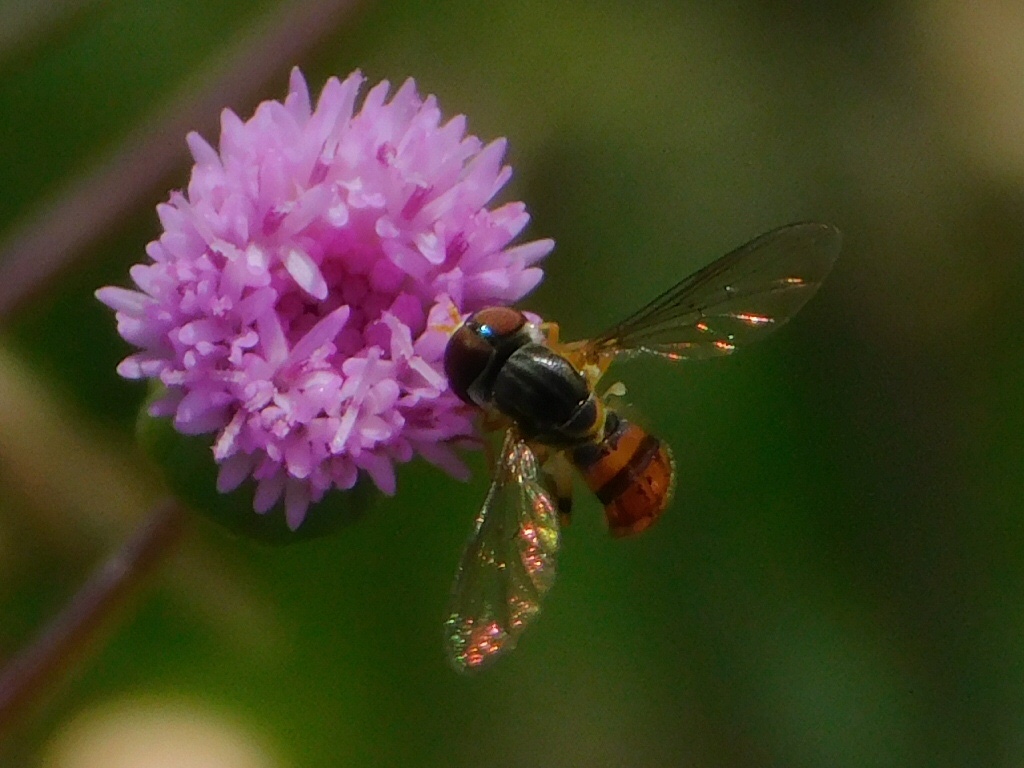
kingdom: Animalia
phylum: Arthropoda
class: Insecta
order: Diptera
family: Syrphidae
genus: Toxomerus
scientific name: Toxomerus boscii
